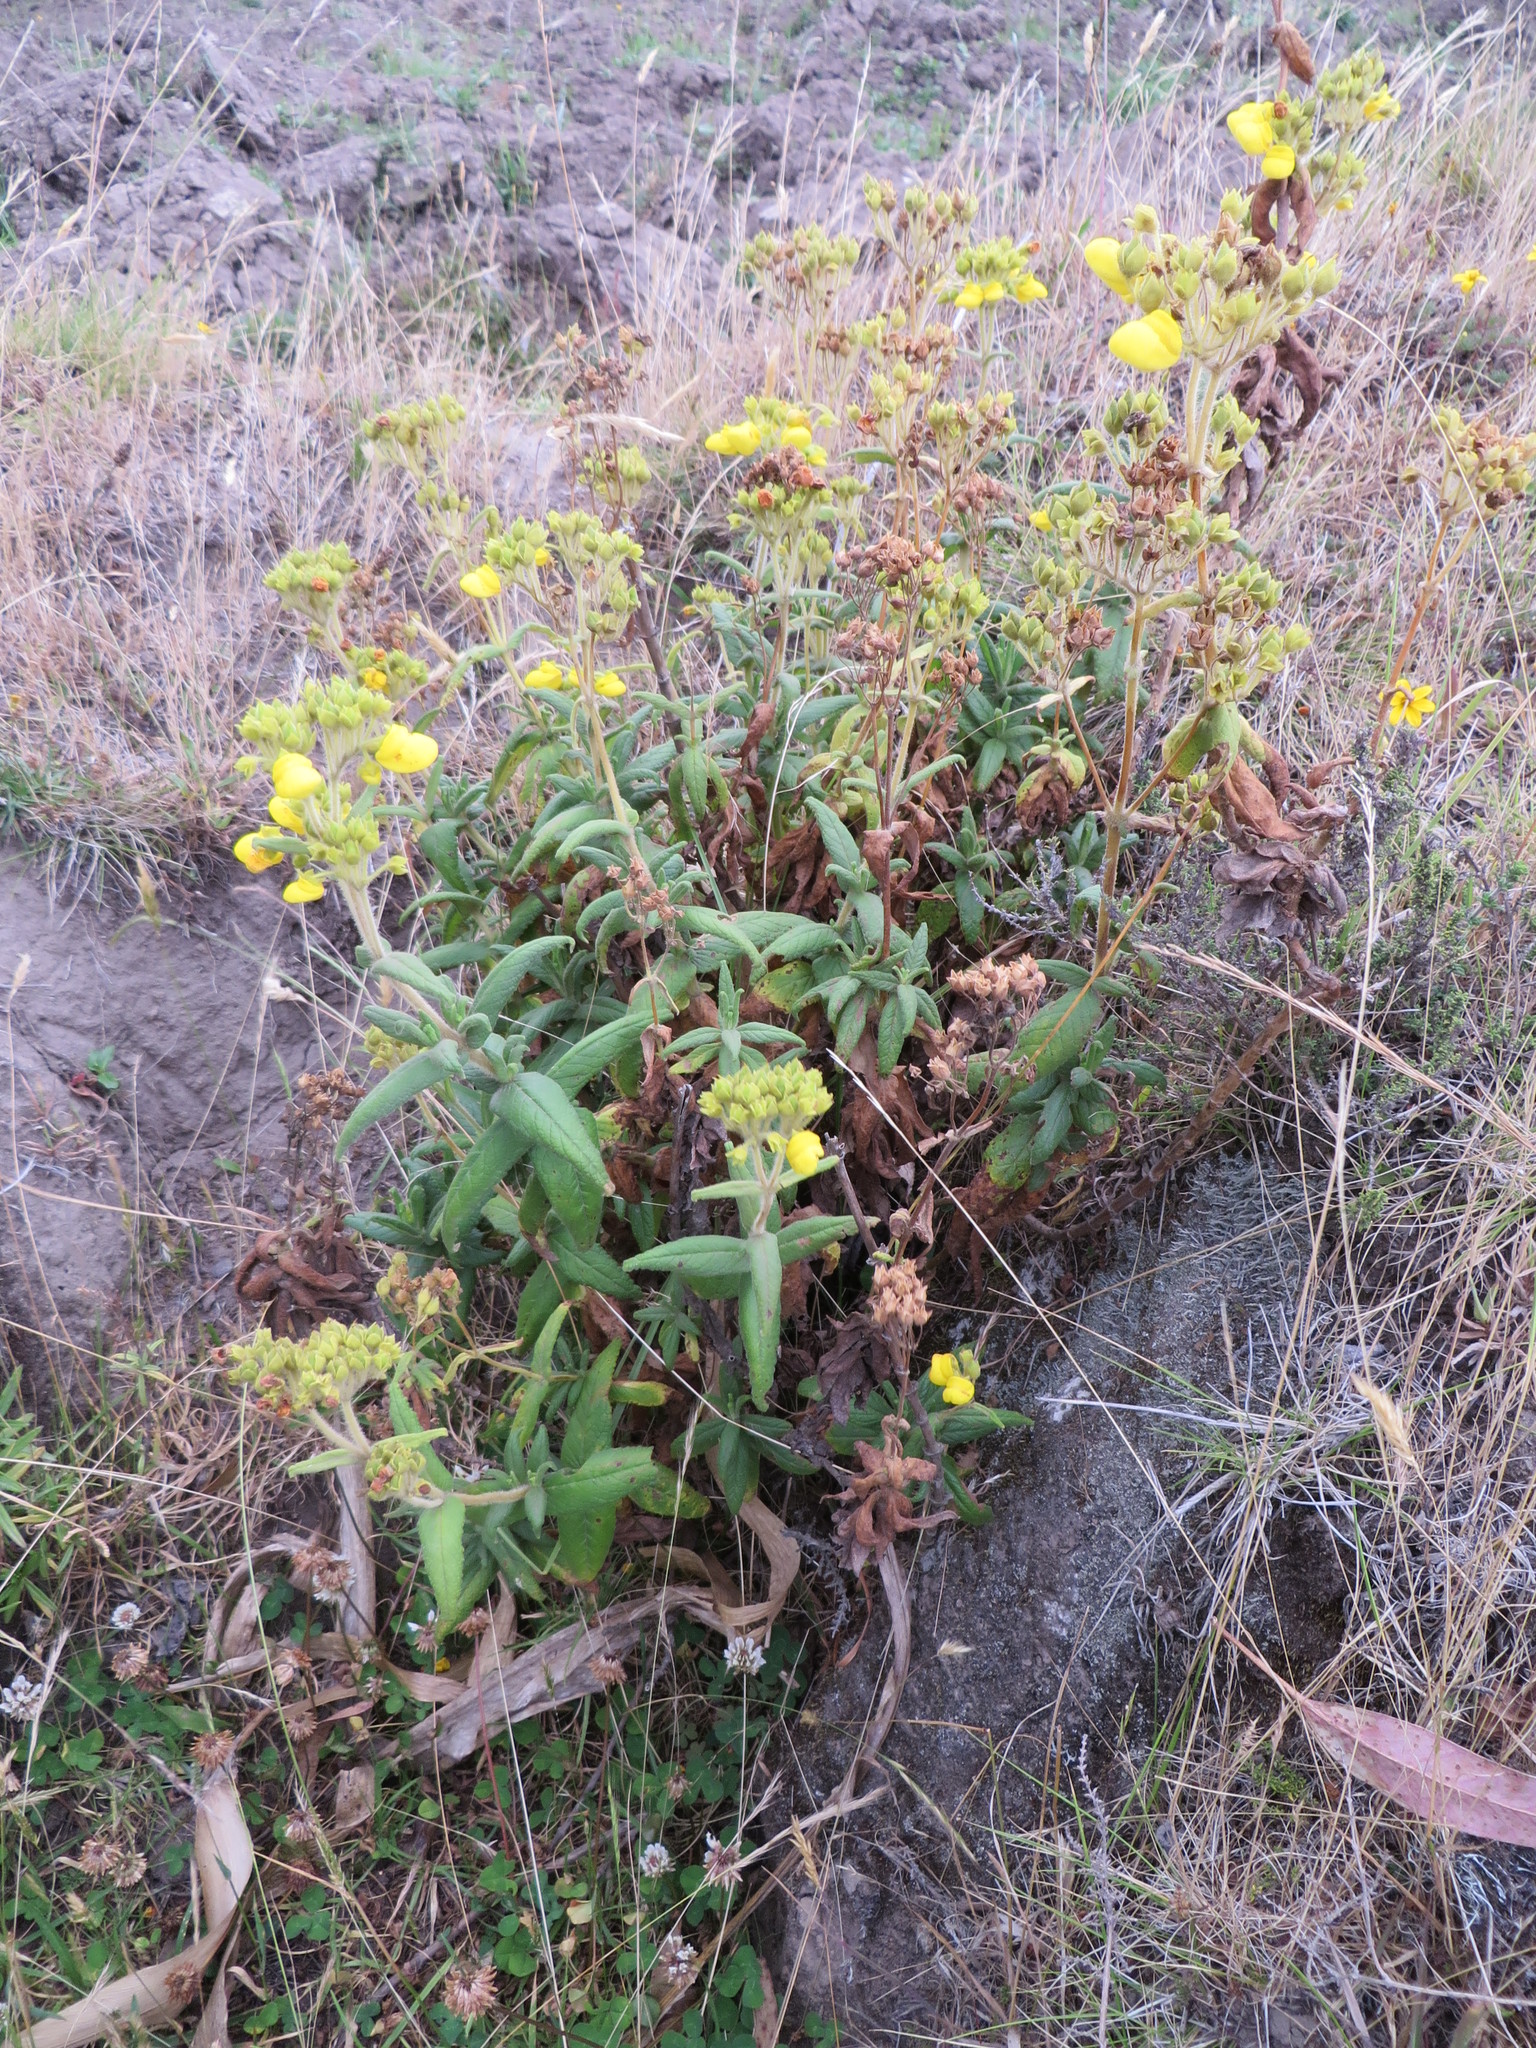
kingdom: Plantae
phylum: Tracheophyta
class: Magnoliopsida
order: Lamiales
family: Calceolariaceae
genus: Calceolaria
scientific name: Calceolaria crenata
